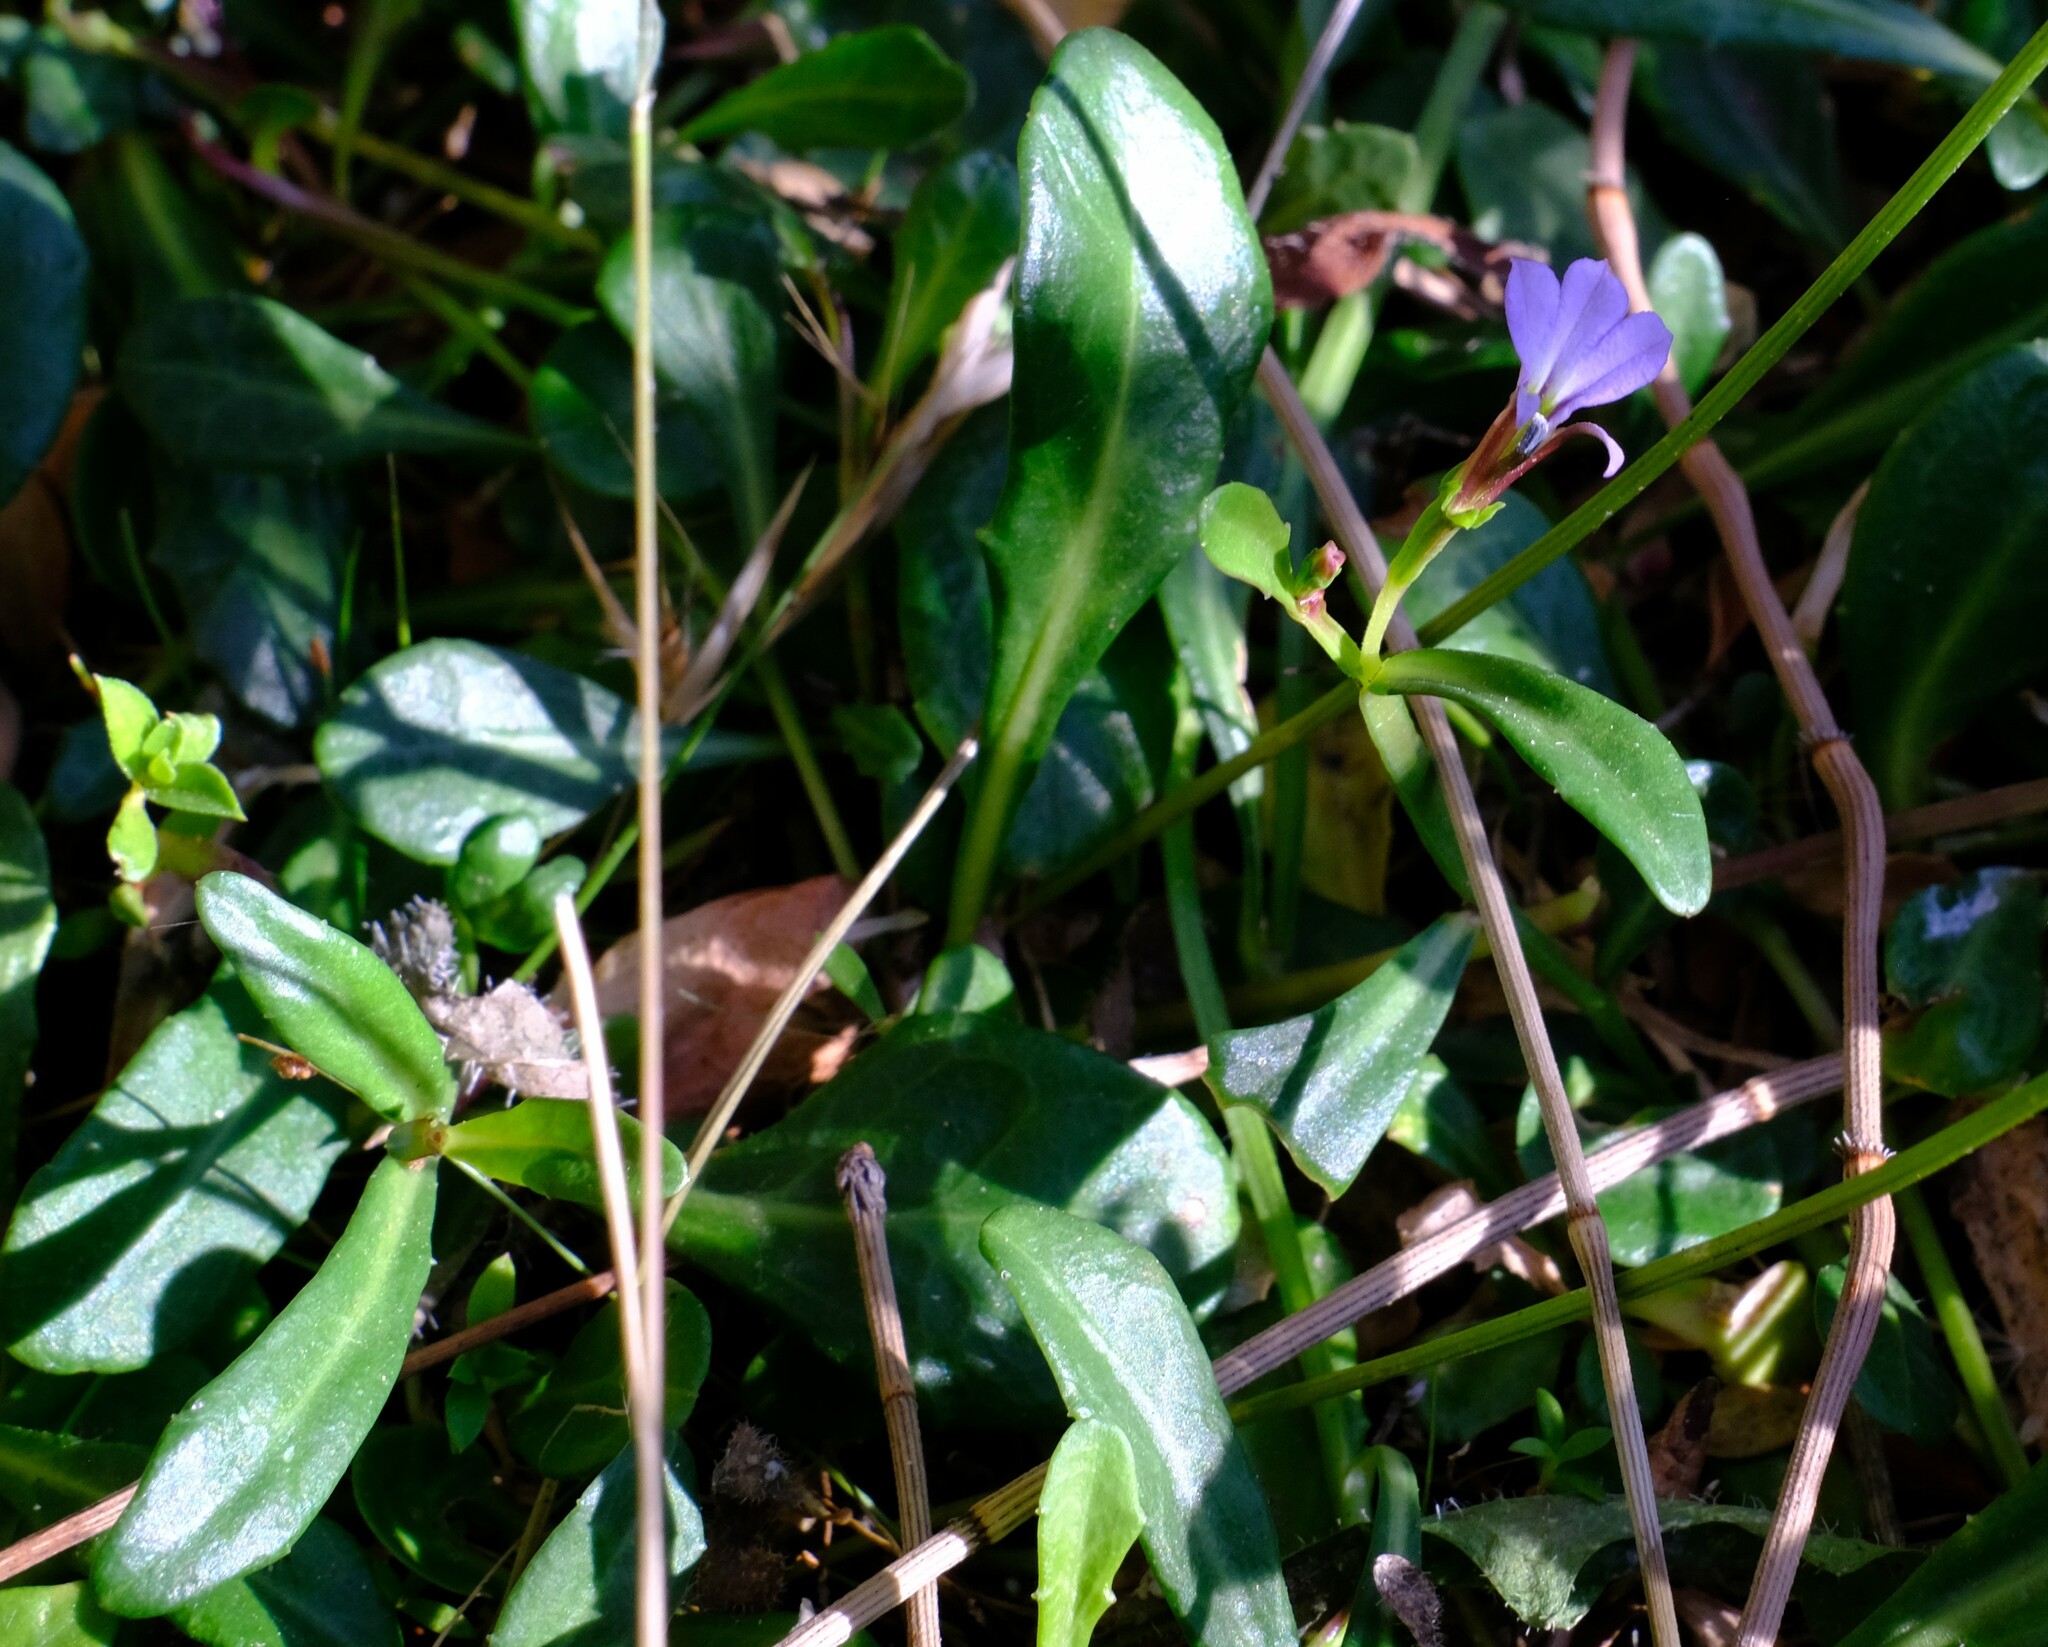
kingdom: Plantae
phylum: Tracheophyta
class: Magnoliopsida
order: Asterales
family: Campanulaceae
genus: Lobelia
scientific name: Lobelia anceps
